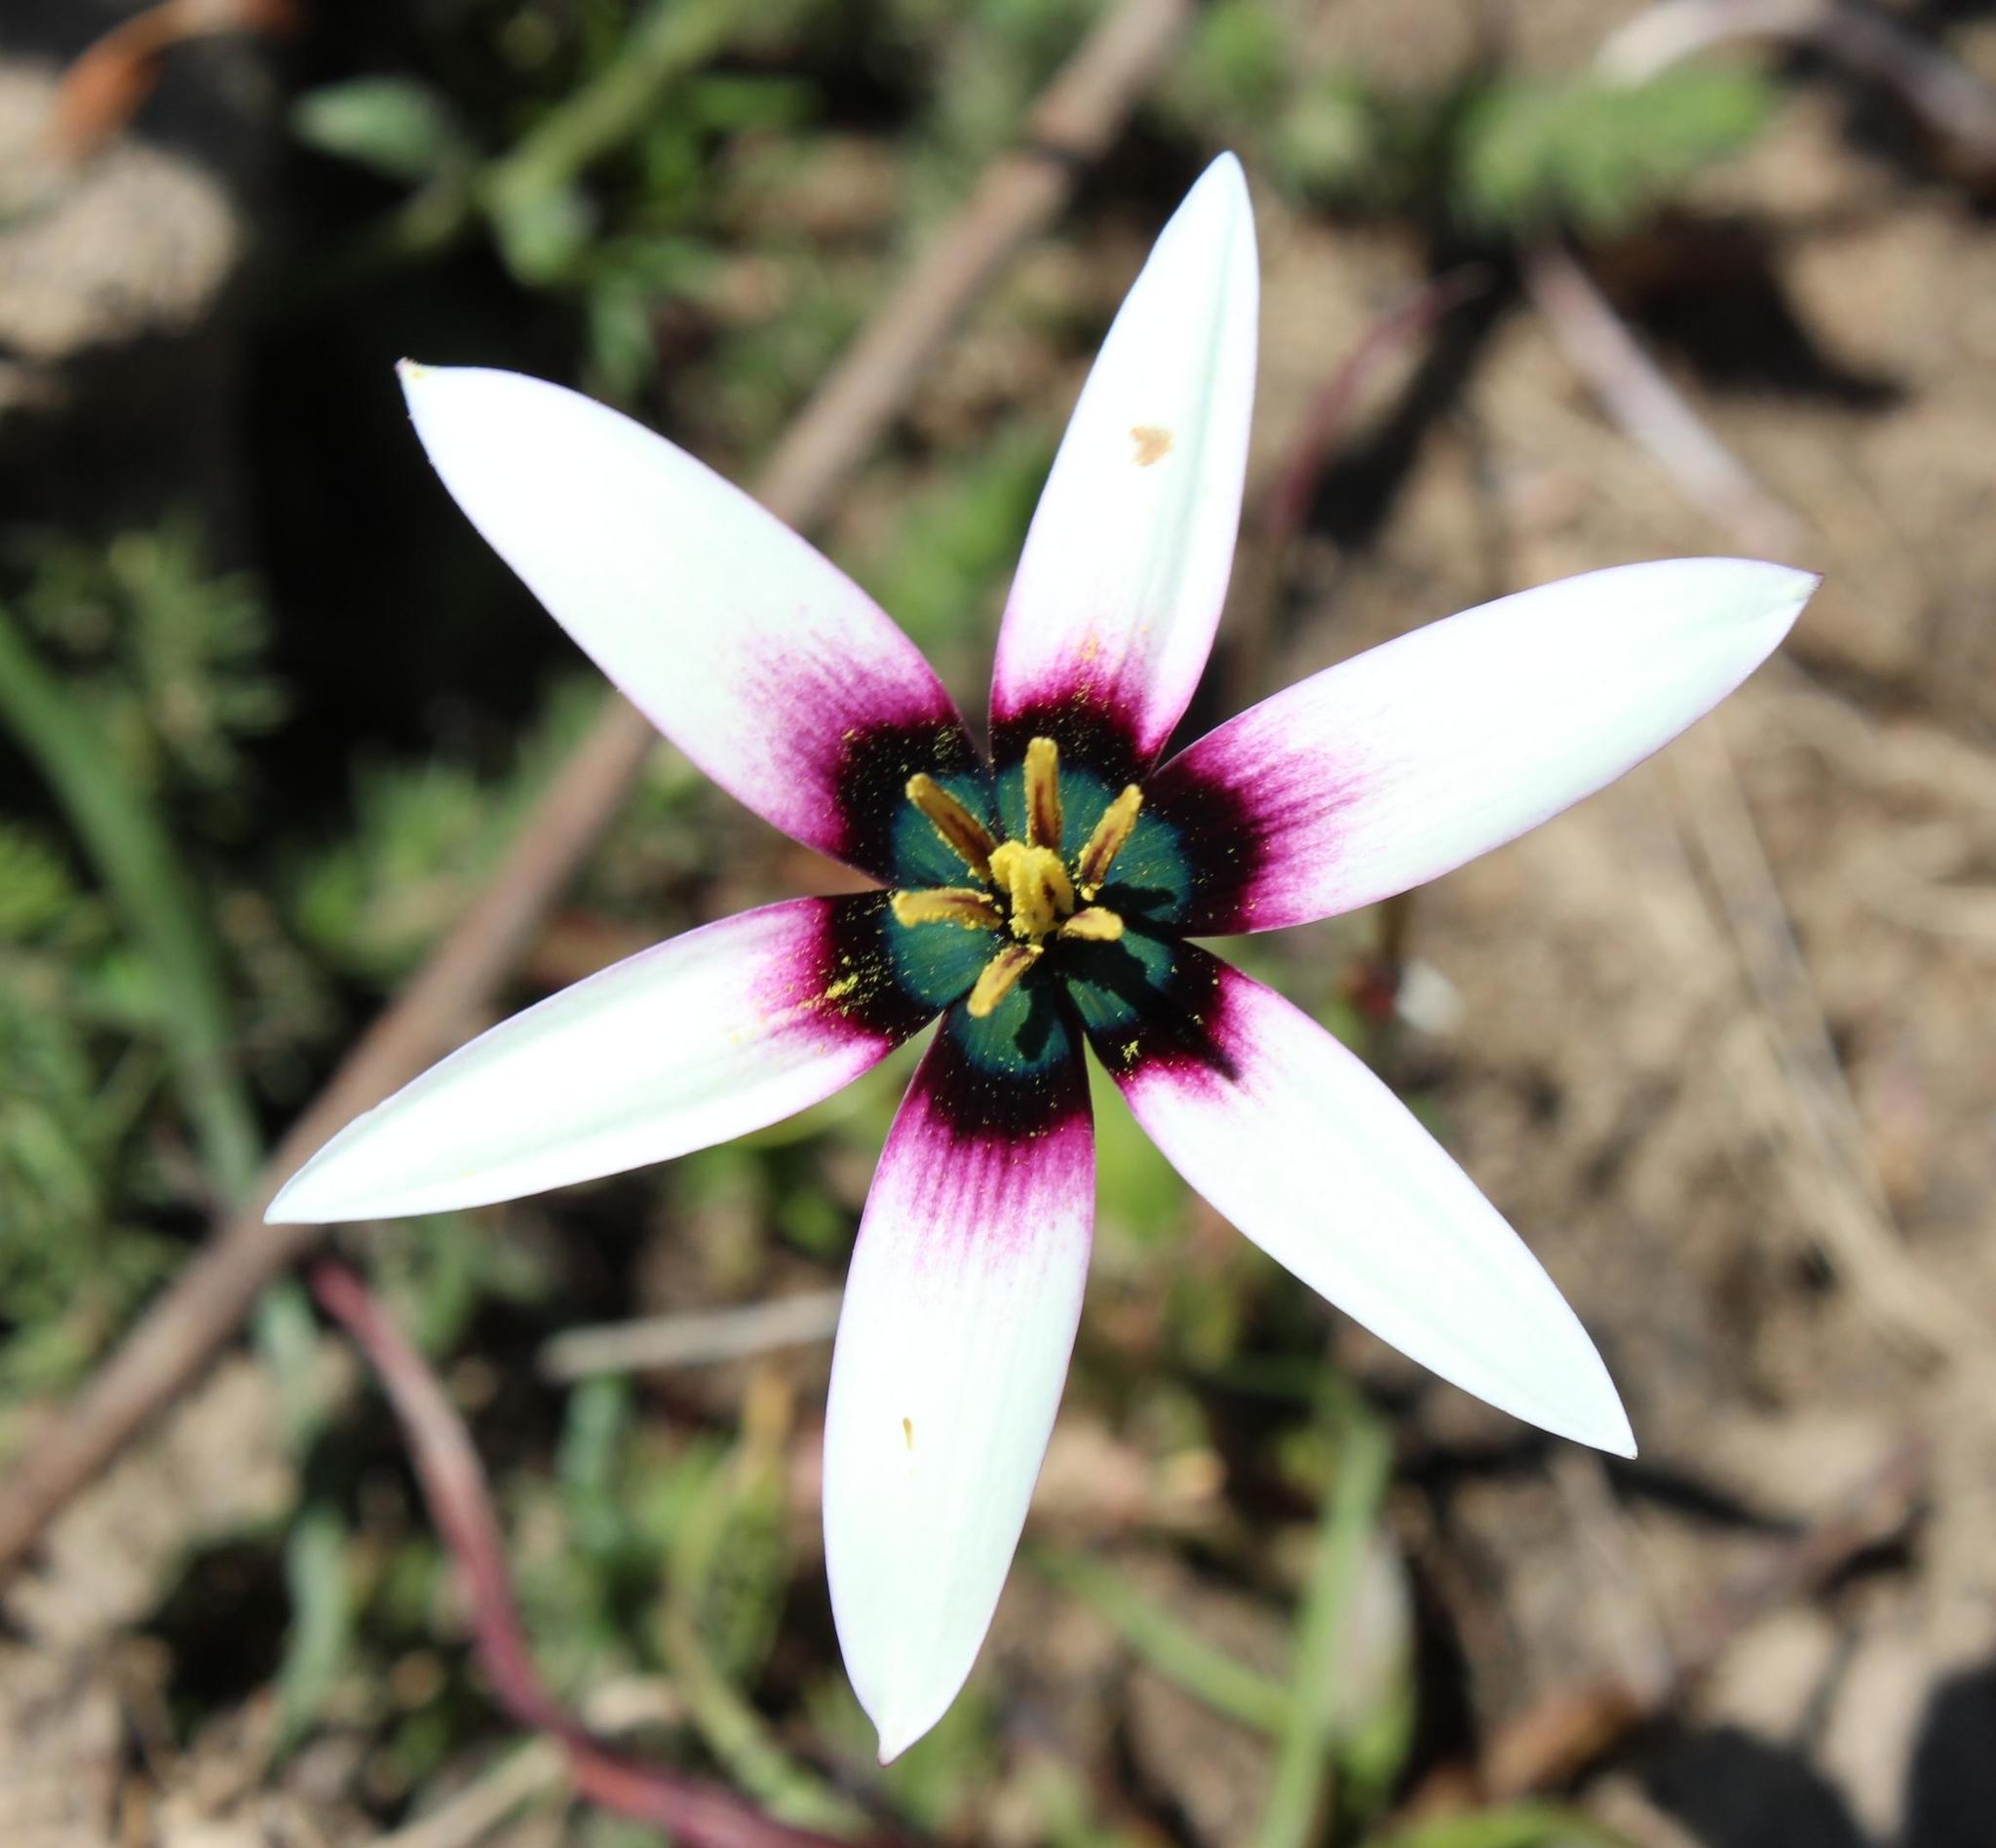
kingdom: Plantae
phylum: Tracheophyta
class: Liliopsida
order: Asparagales
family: Hypoxidaceae
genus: Pauridia
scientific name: Pauridia capensis
